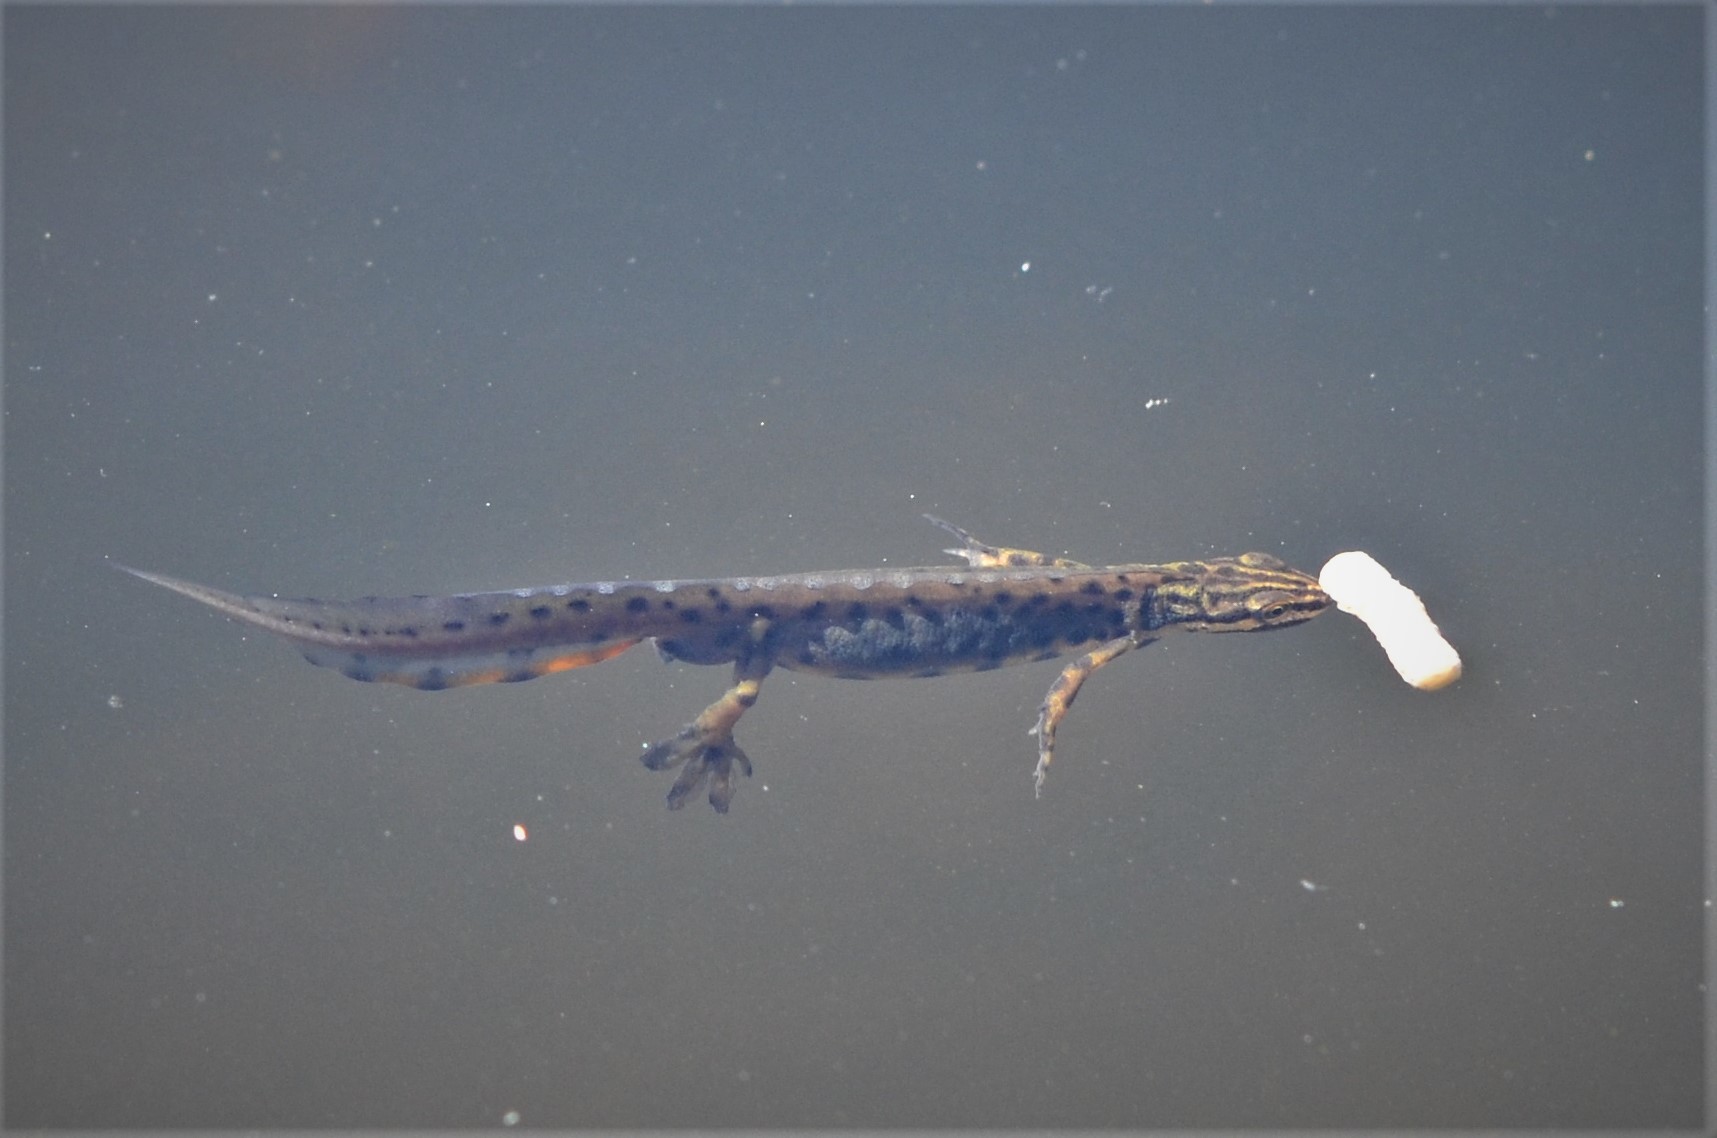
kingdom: Animalia
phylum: Chordata
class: Amphibia
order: Caudata
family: Salamandridae
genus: Lissotriton
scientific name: Lissotriton vulgaris
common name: Smooth newt
